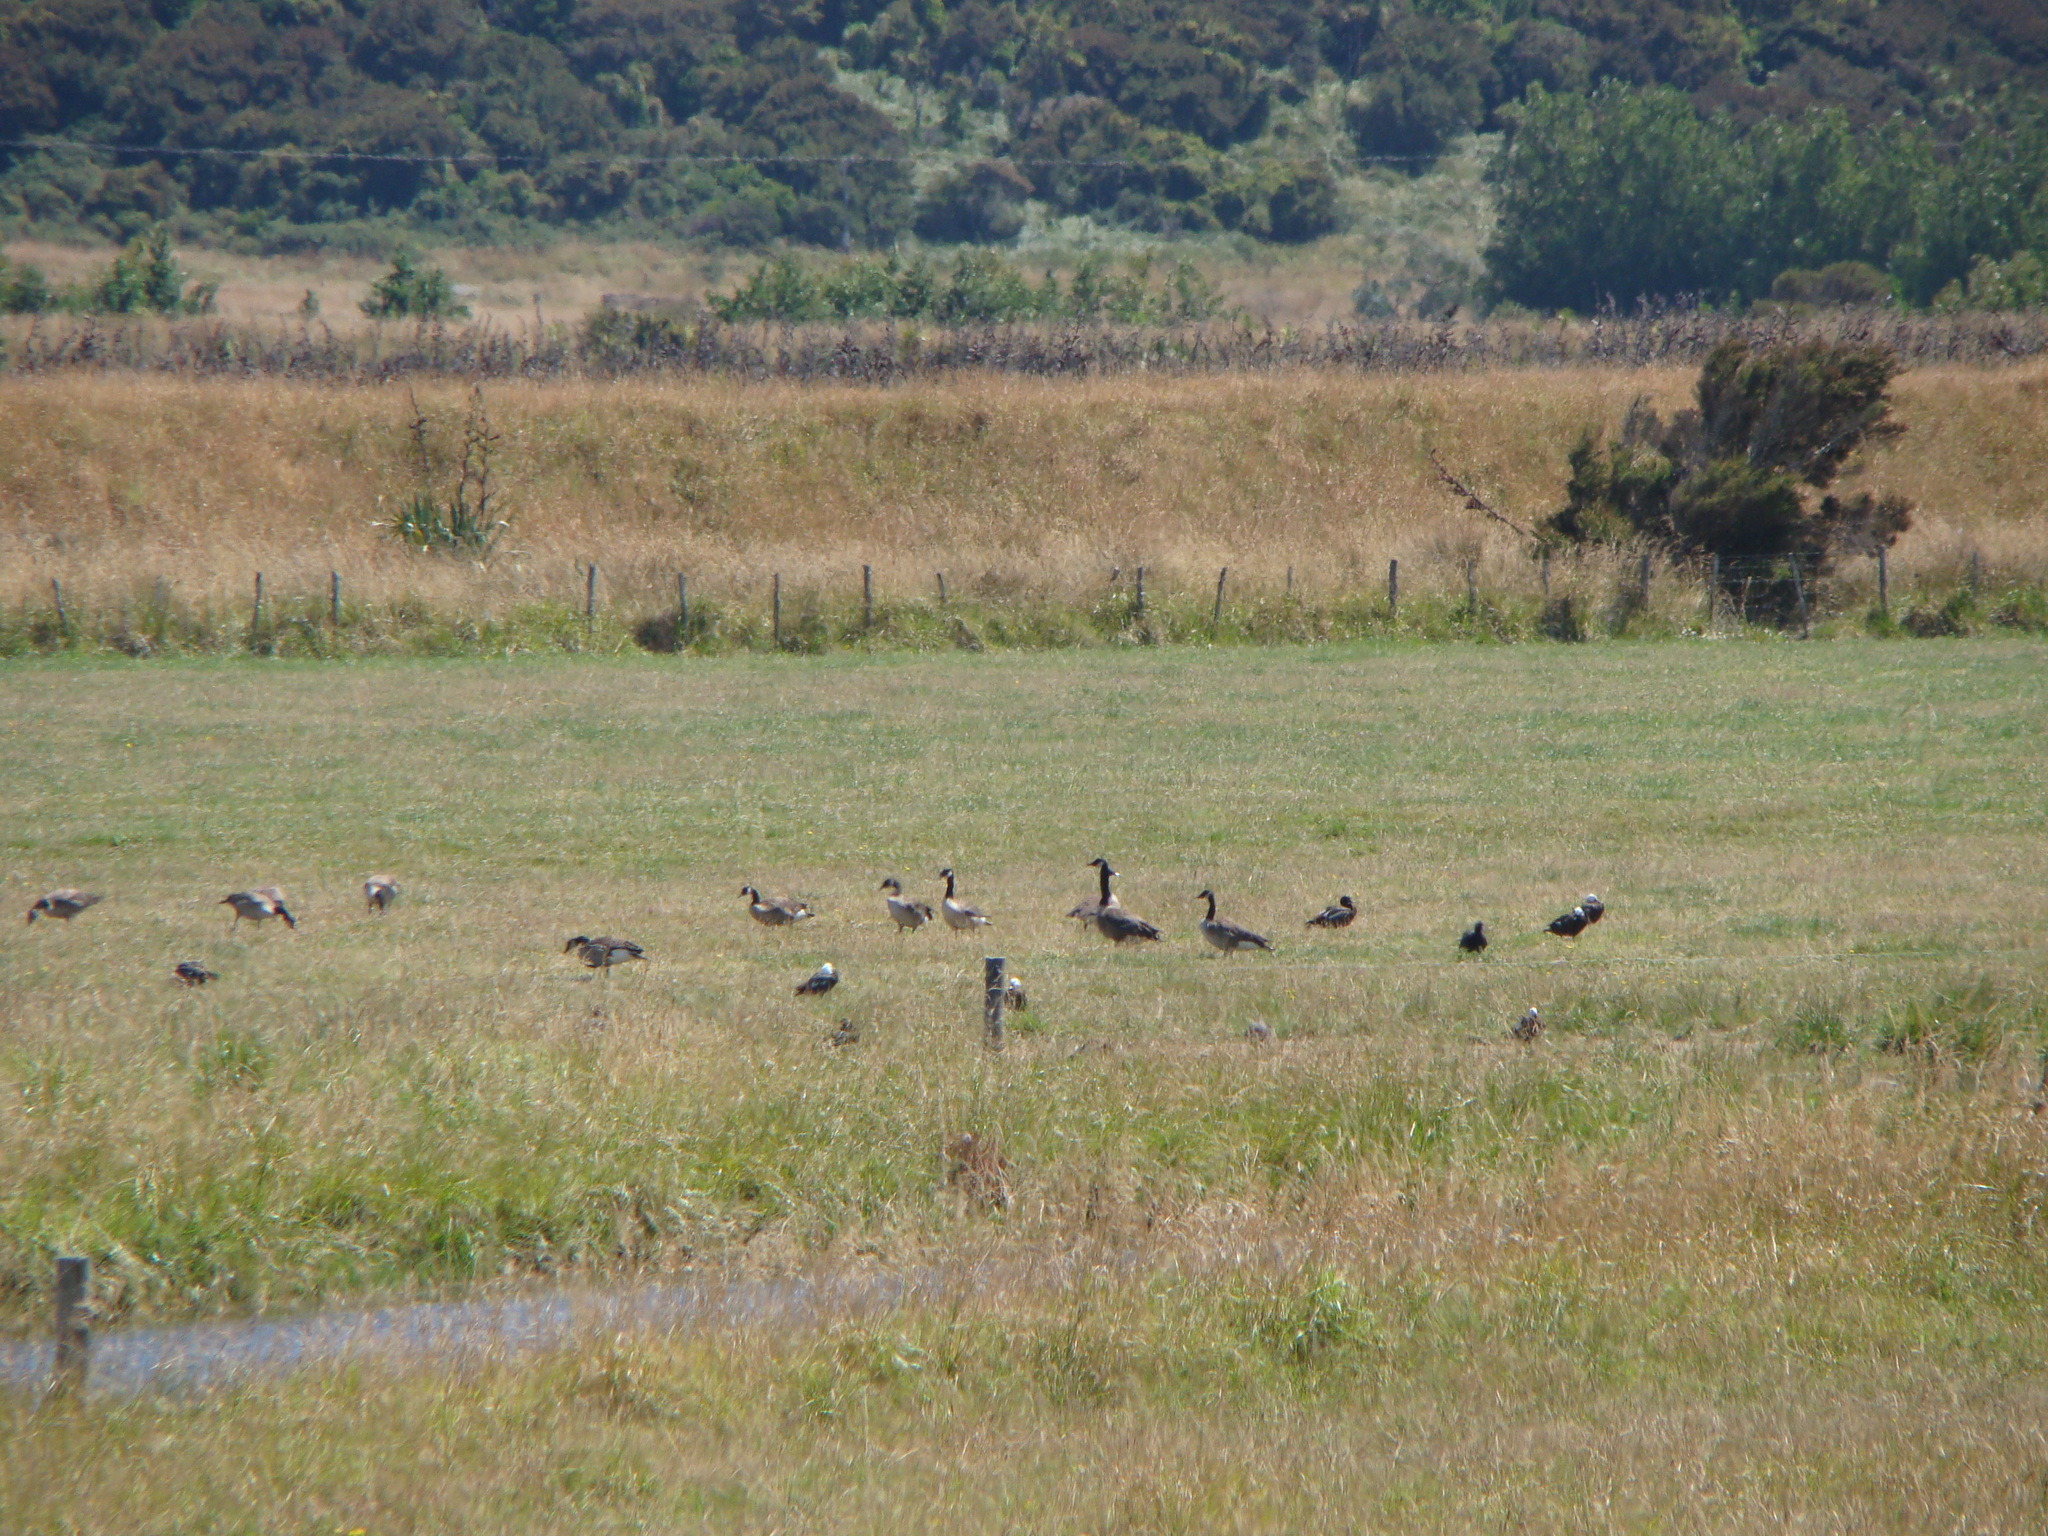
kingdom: Animalia
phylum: Chordata
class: Aves
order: Anseriformes
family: Anatidae
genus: Branta
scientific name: Branta canadensis
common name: Canada goose
